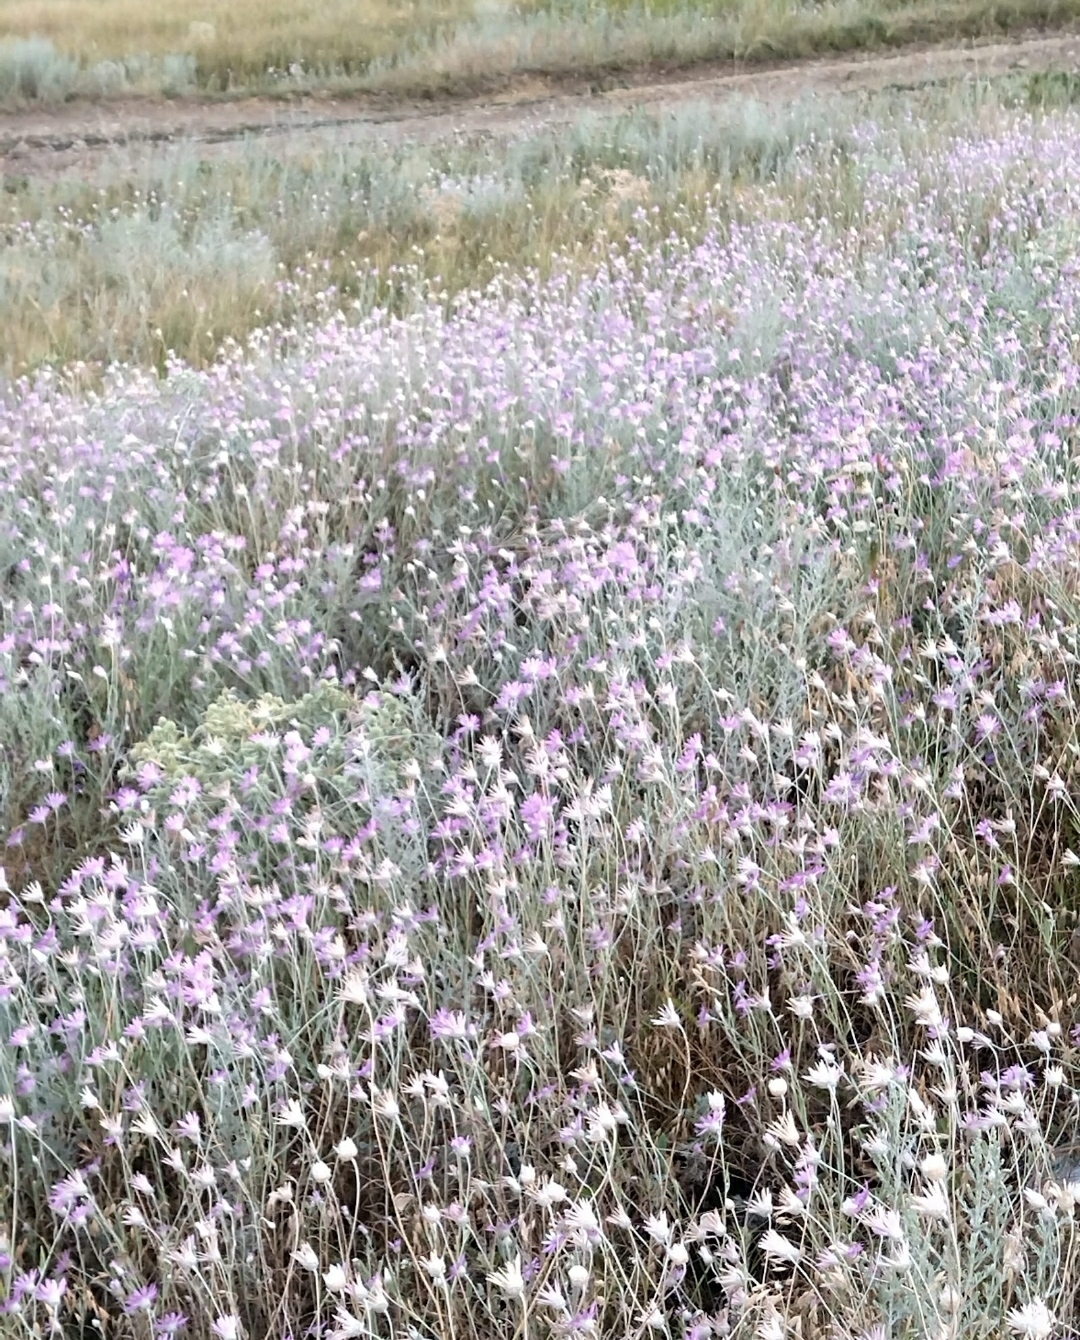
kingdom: Plantae
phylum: Tracheophyta
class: Magnoliopsida
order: Asterales
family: Asteraceae
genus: Xeranthemum
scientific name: Xeranthemum annuum
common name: Immortelle
